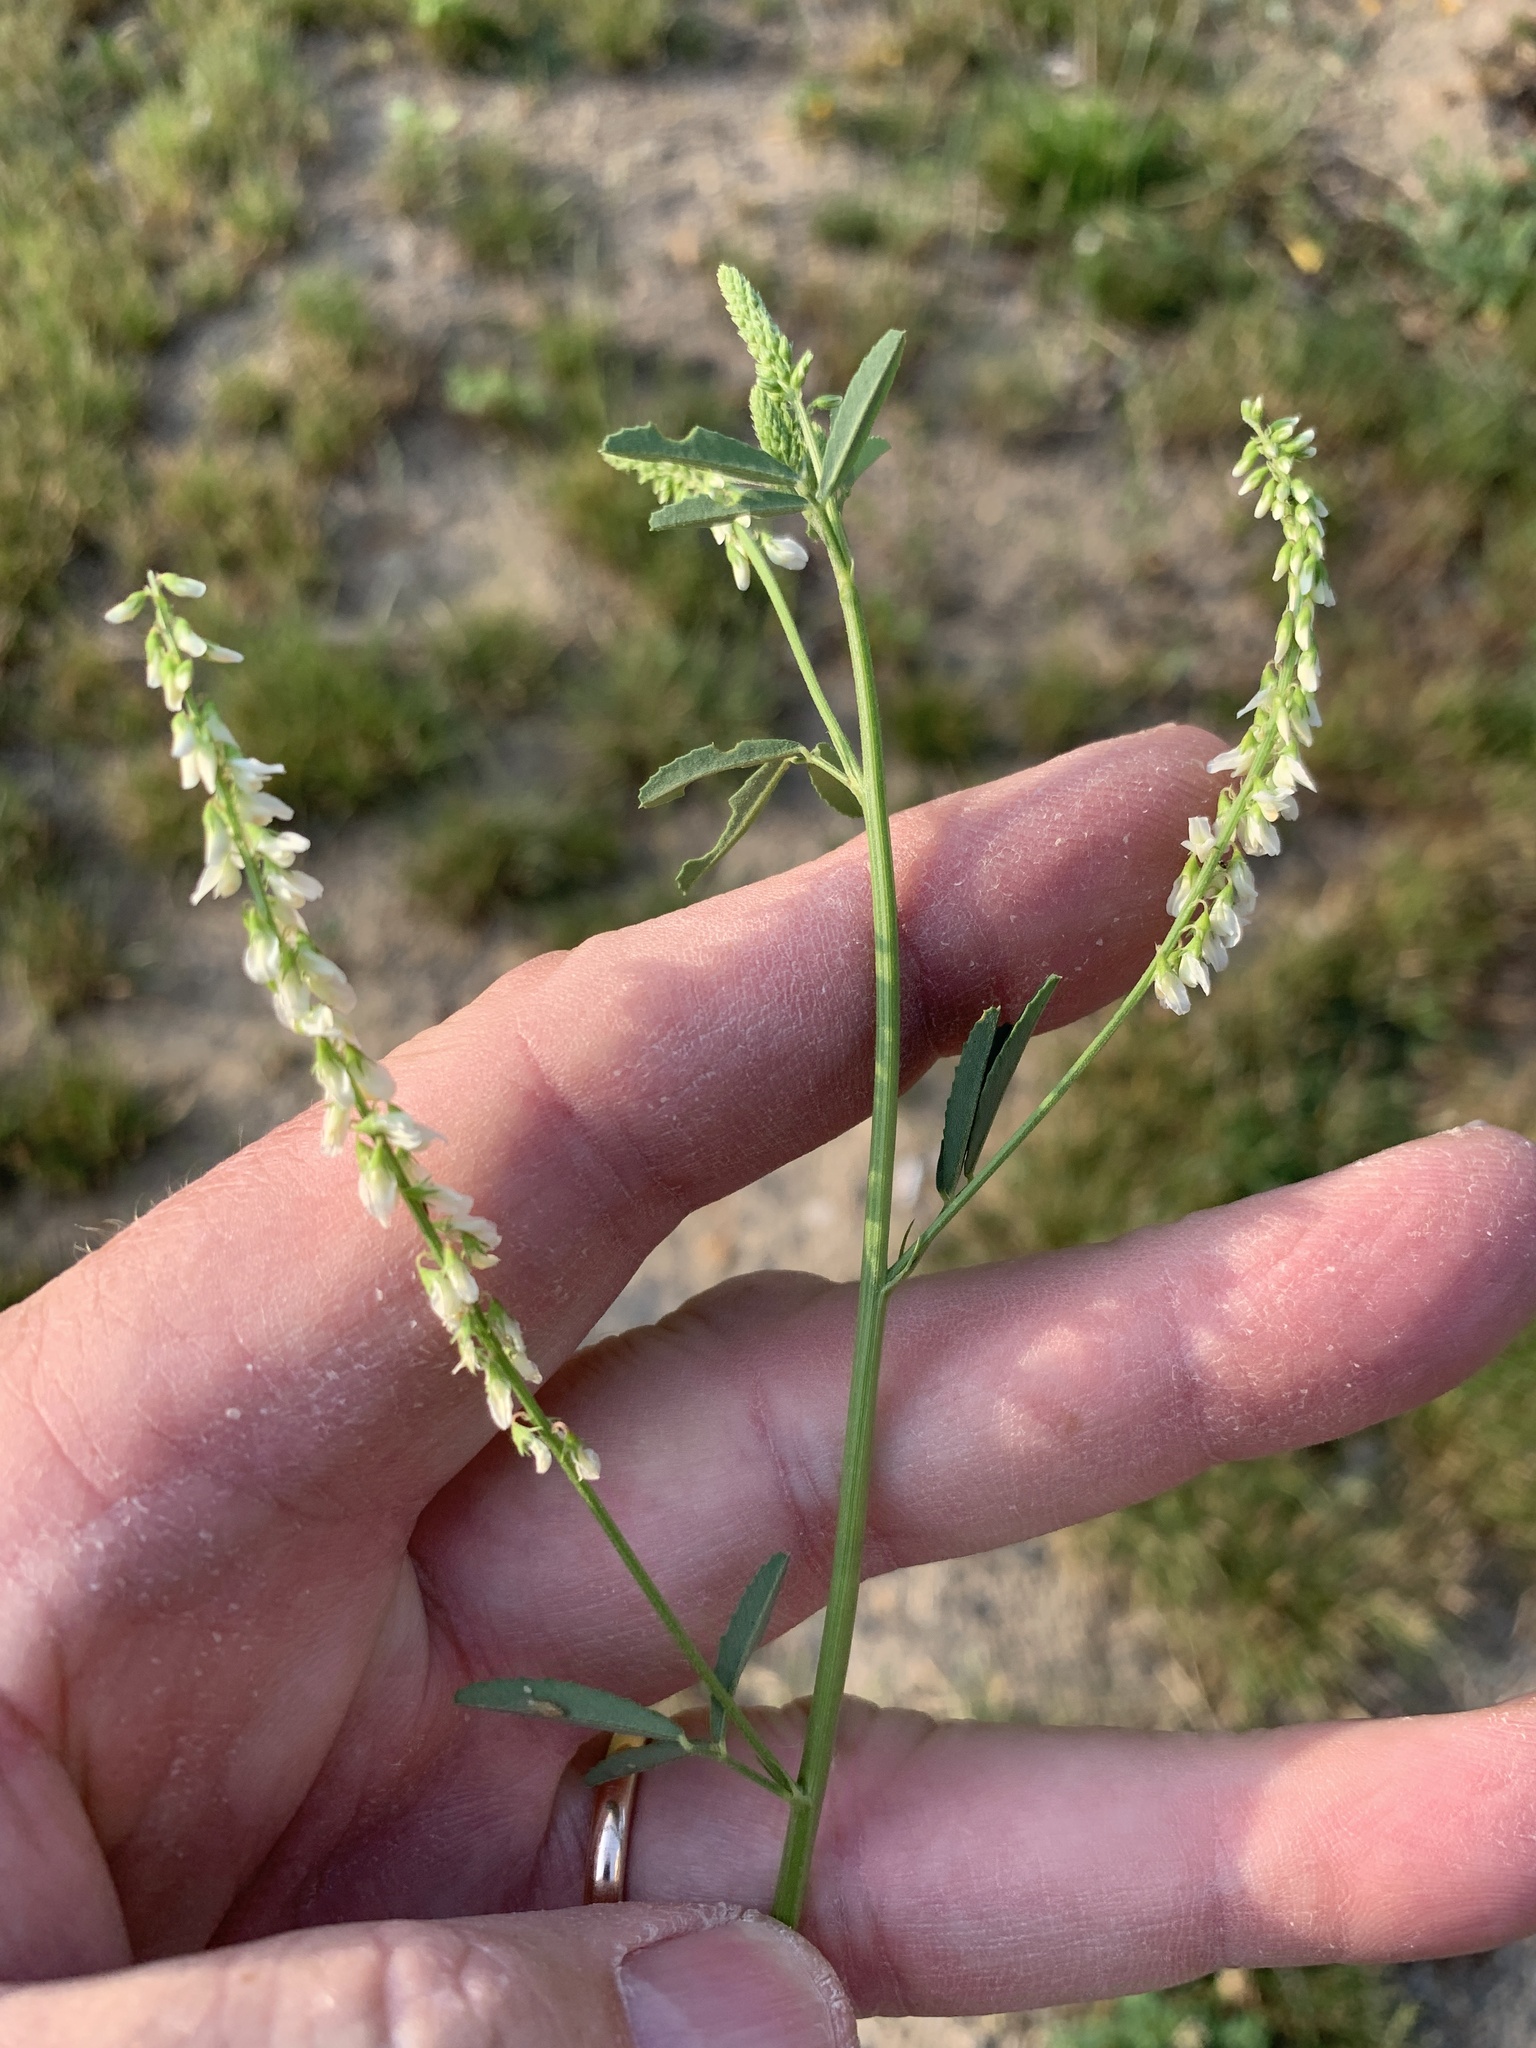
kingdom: Plantae
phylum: Tracheophyta
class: Magnoliopsida
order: Fabales
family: Fabaceae
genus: Melilotus
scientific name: Melilotus albus
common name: White melilot
